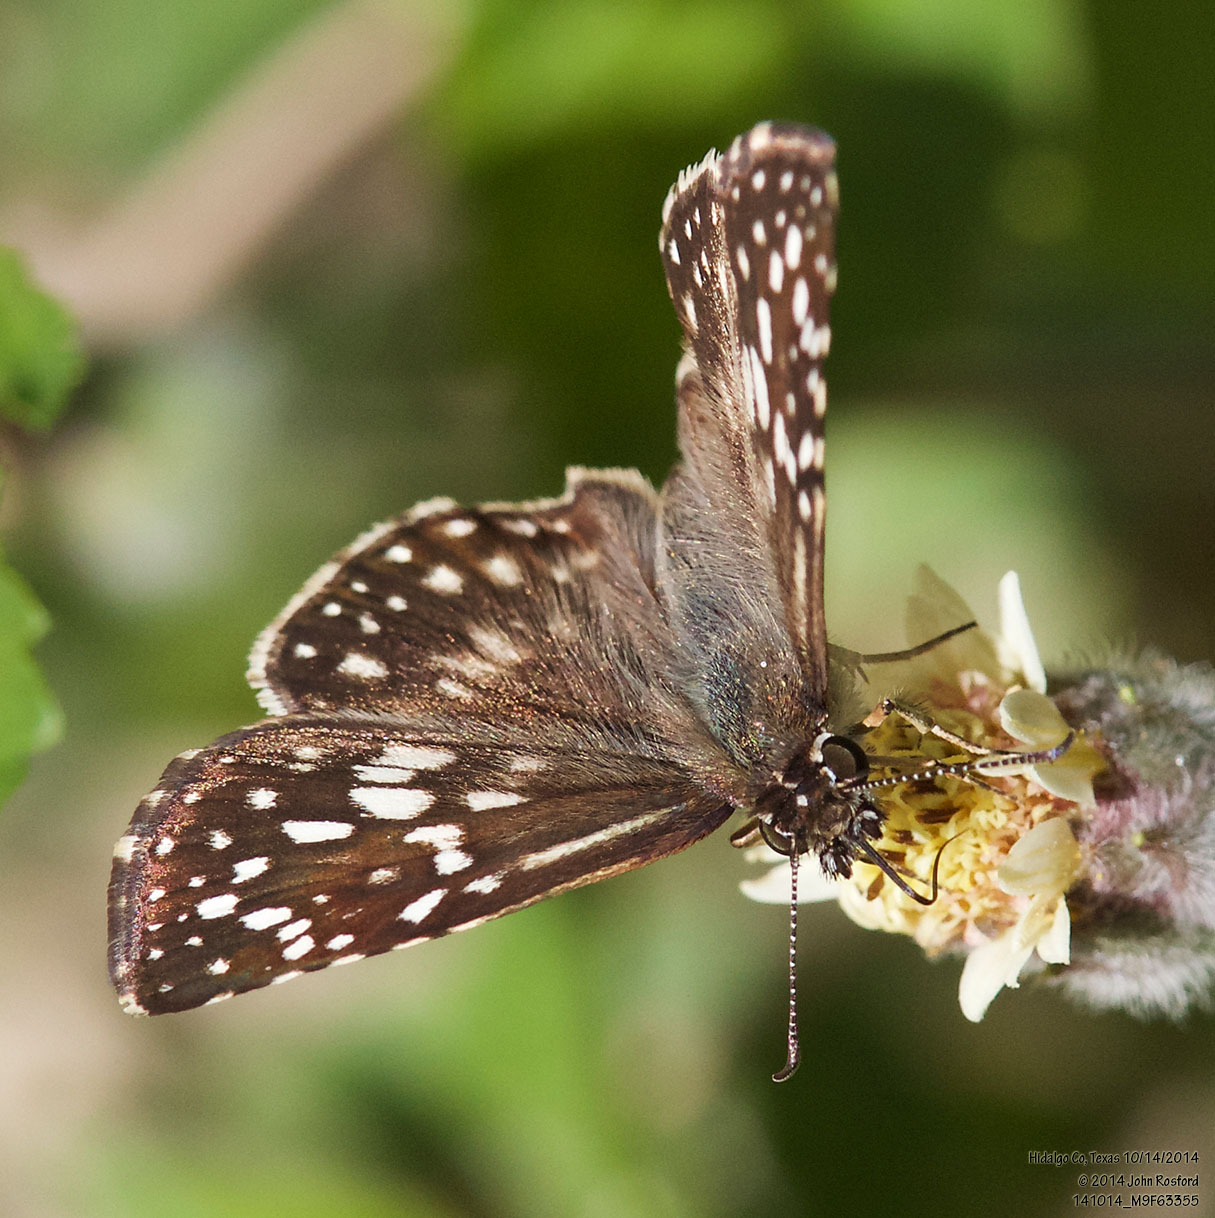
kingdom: Animalia
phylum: Arthropoda
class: Insecta
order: Lepidoptera
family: Hesperiidae
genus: Pyrgus
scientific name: Pyrgus oileus
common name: Tropical checkered-skipper
